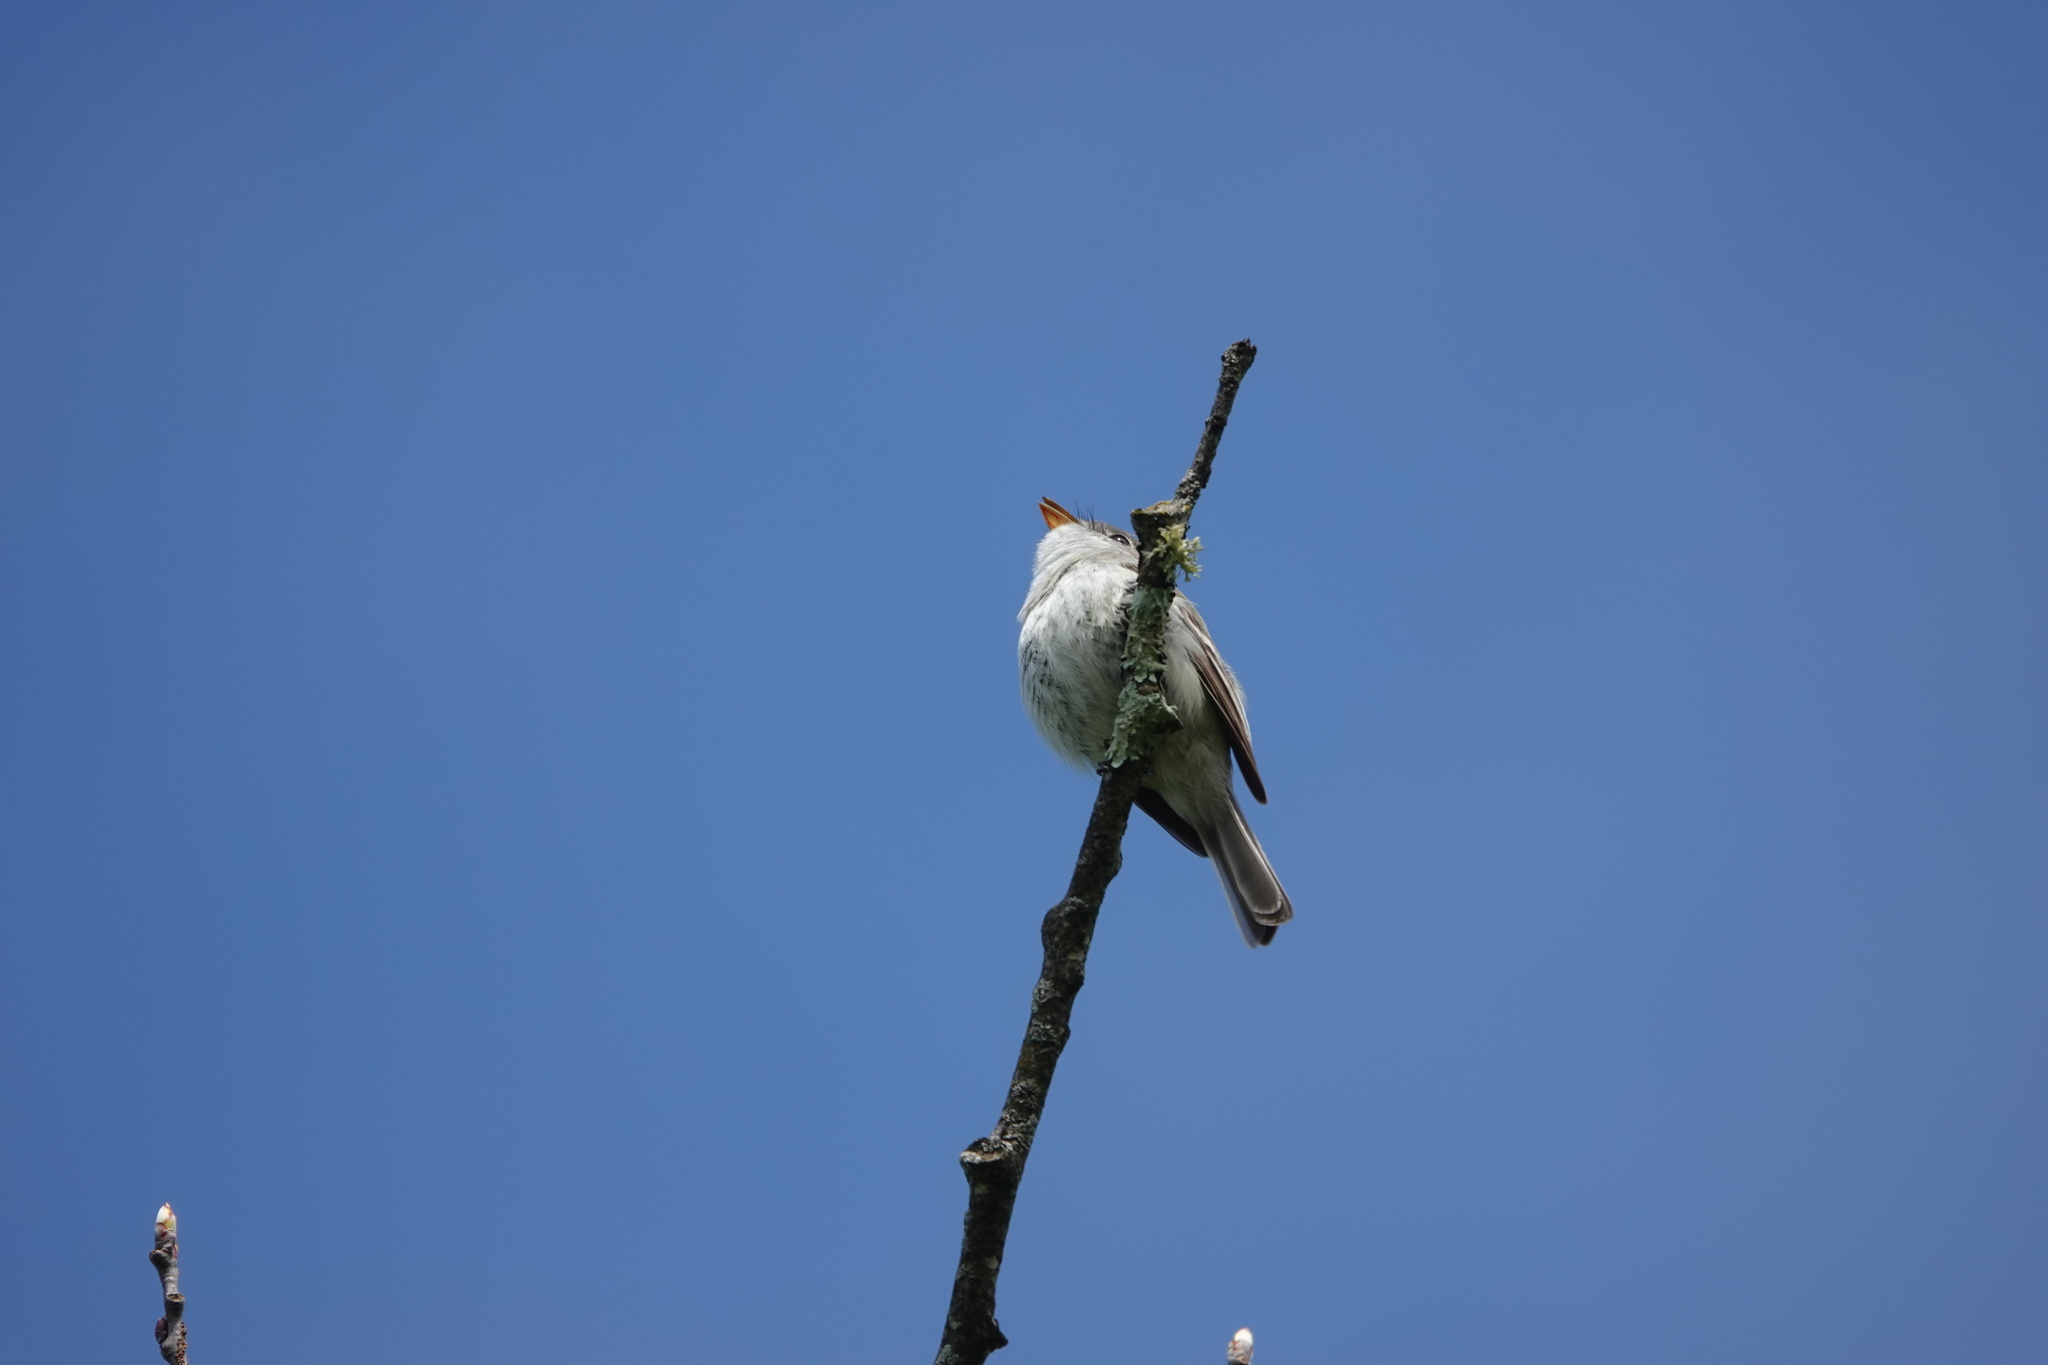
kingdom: Animalia
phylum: Chordata
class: Aves
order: Passeriformes
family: Tyrannidae
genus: Empidonax
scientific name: Empidonax minimus
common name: Least flycatcher
